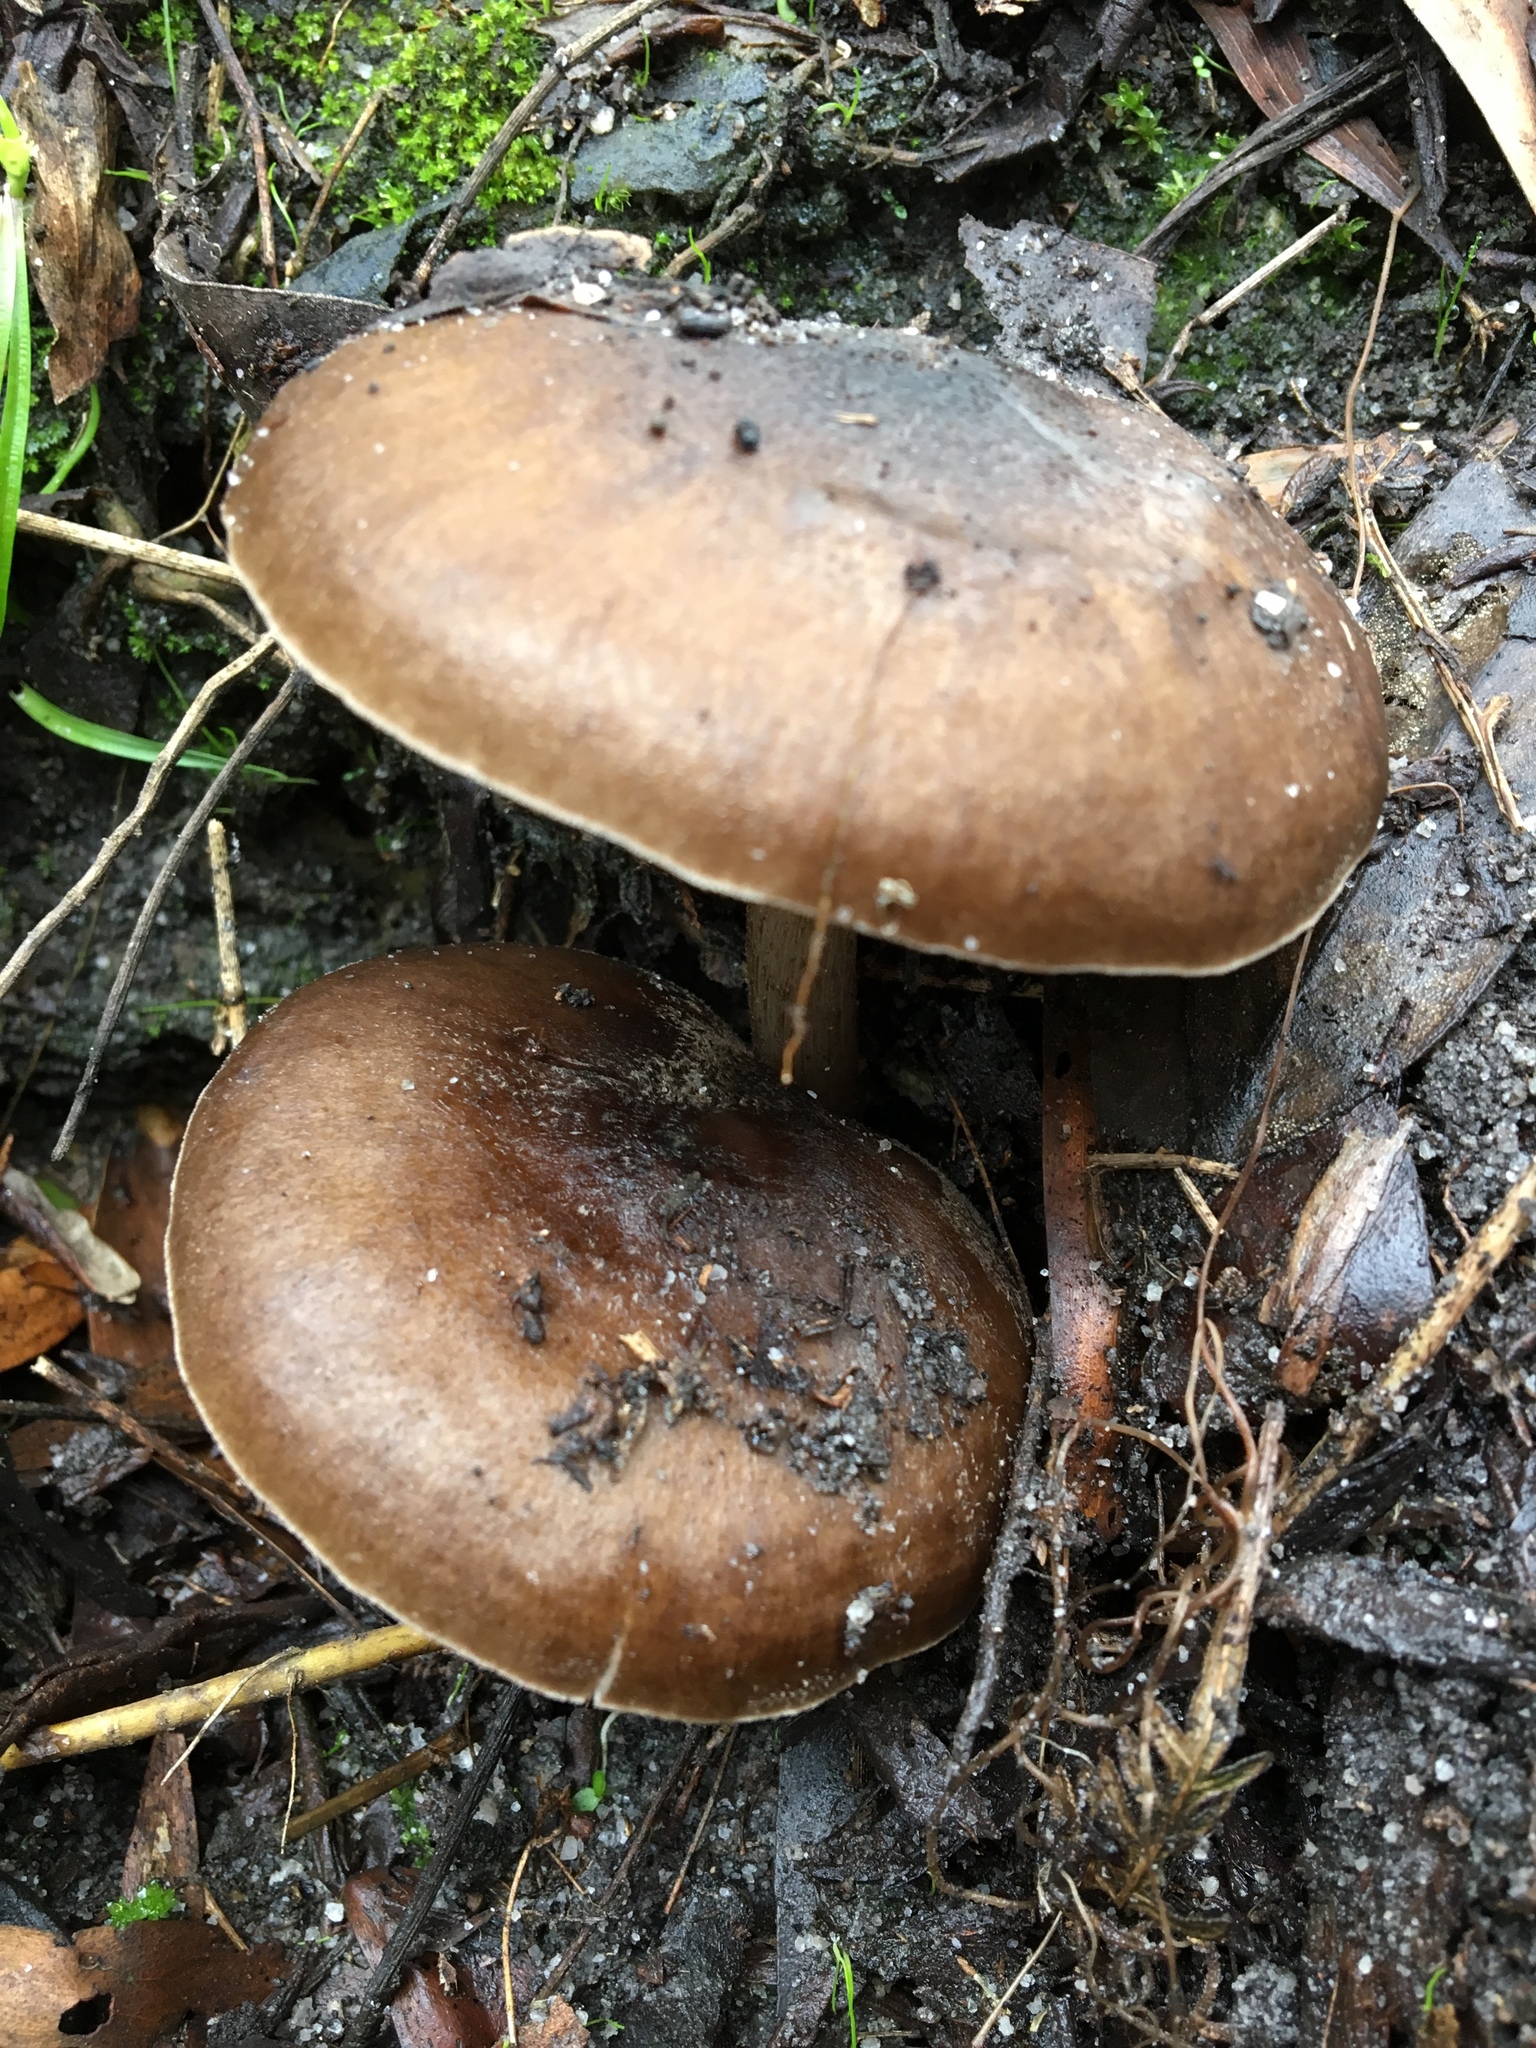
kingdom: Fungi
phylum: Basidiomycota
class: Agaricomycetes
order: Agaricales
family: Pluteaceae
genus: Pluteus
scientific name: Pluteus cervinus
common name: Deer shield
